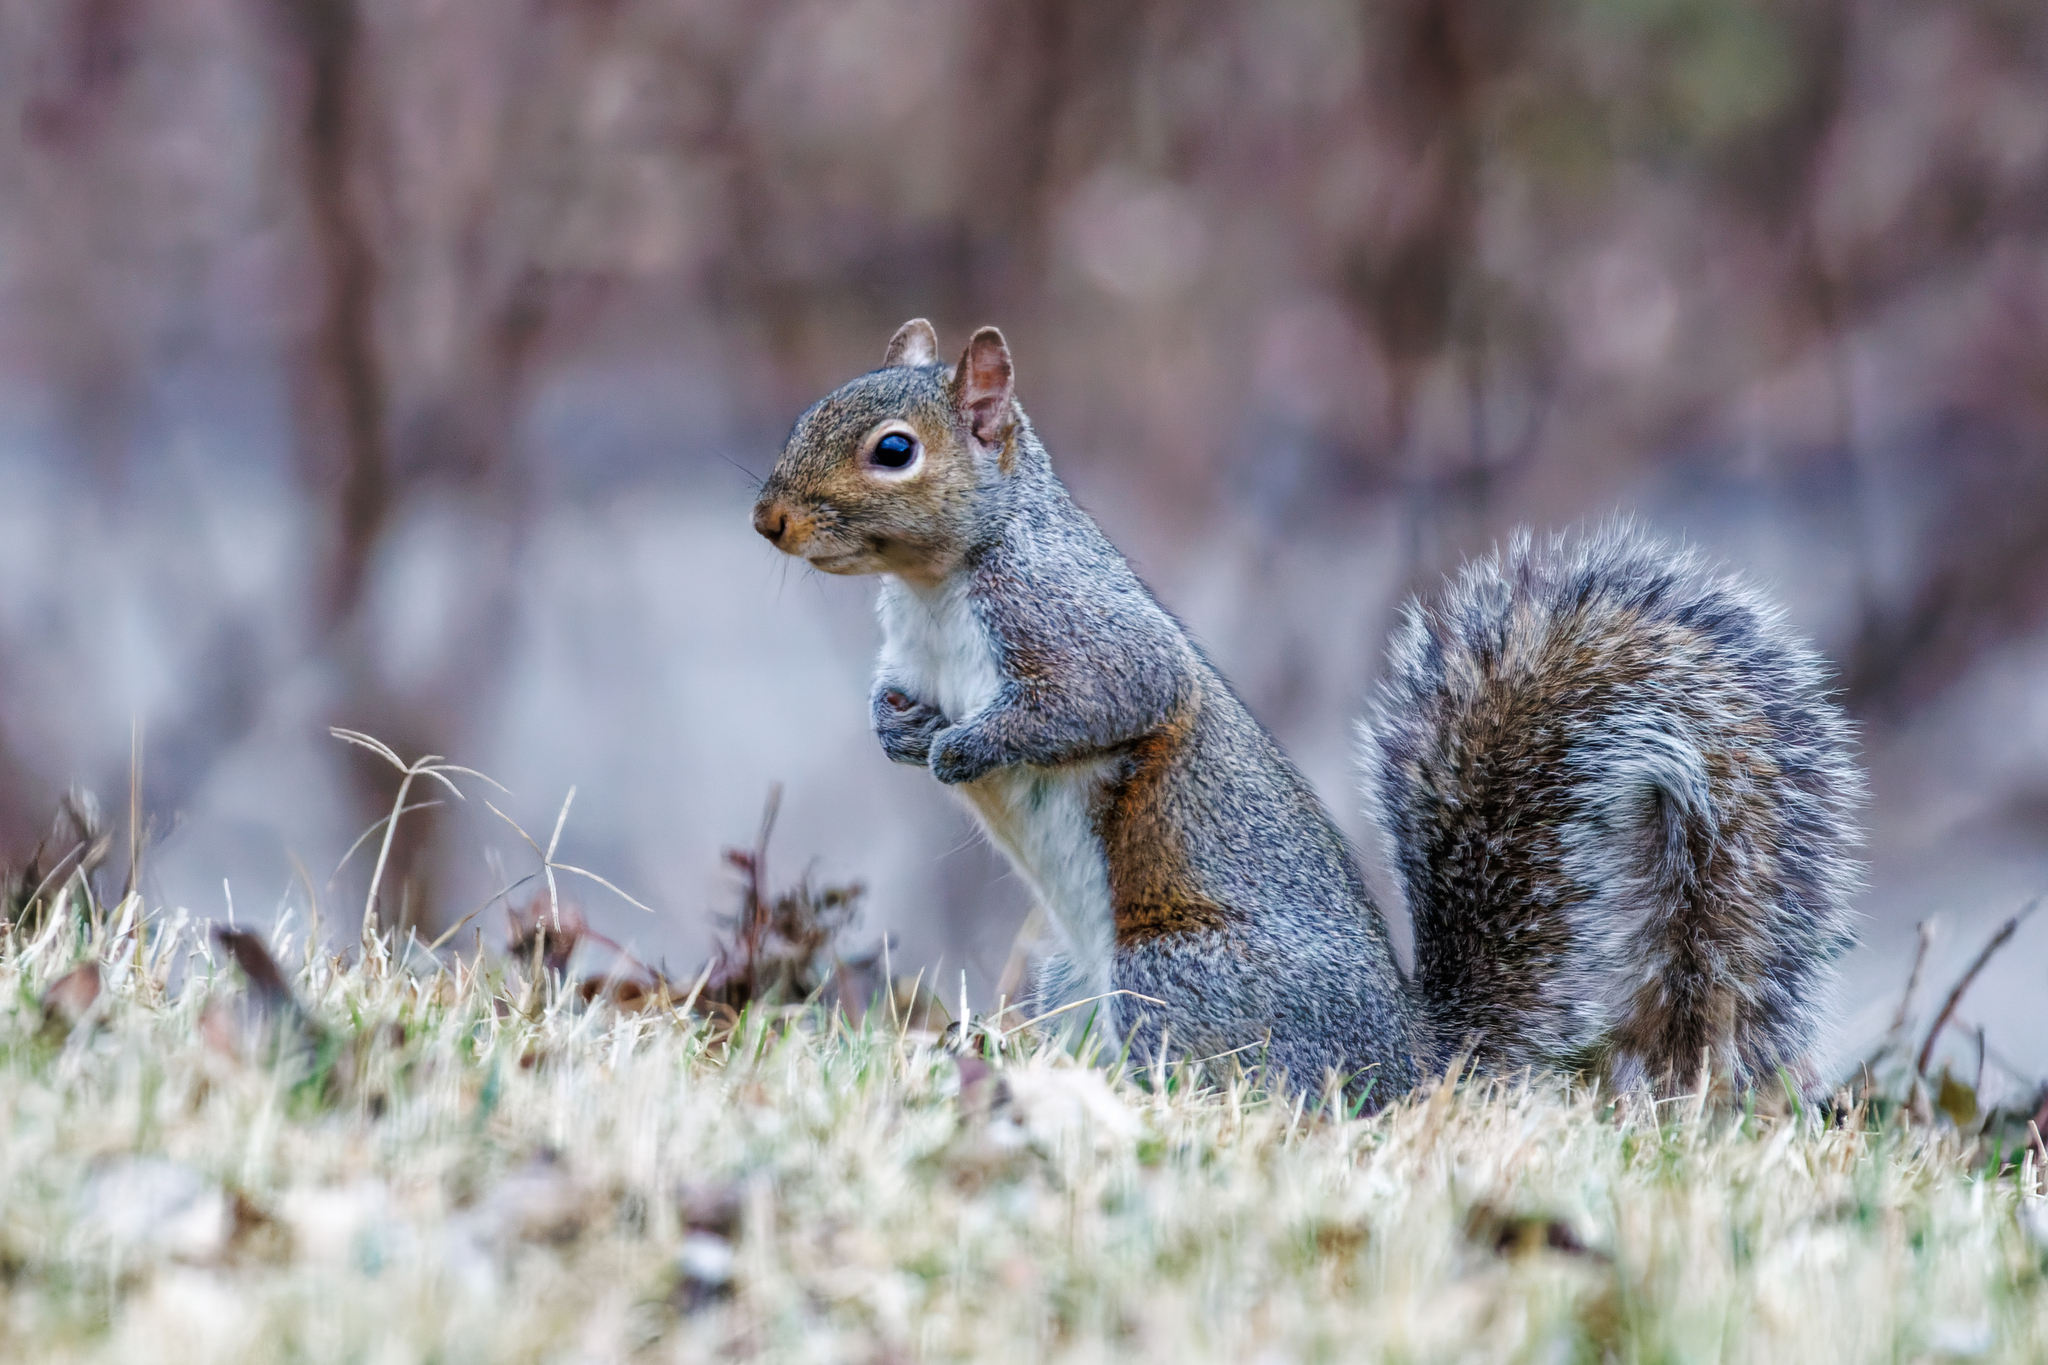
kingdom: Animalia
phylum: Chordata
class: Mammalia
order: Rodentia
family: Sciuridae
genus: Sciurus
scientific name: Sciurus carolinensis
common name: Eastern gray squirrel
